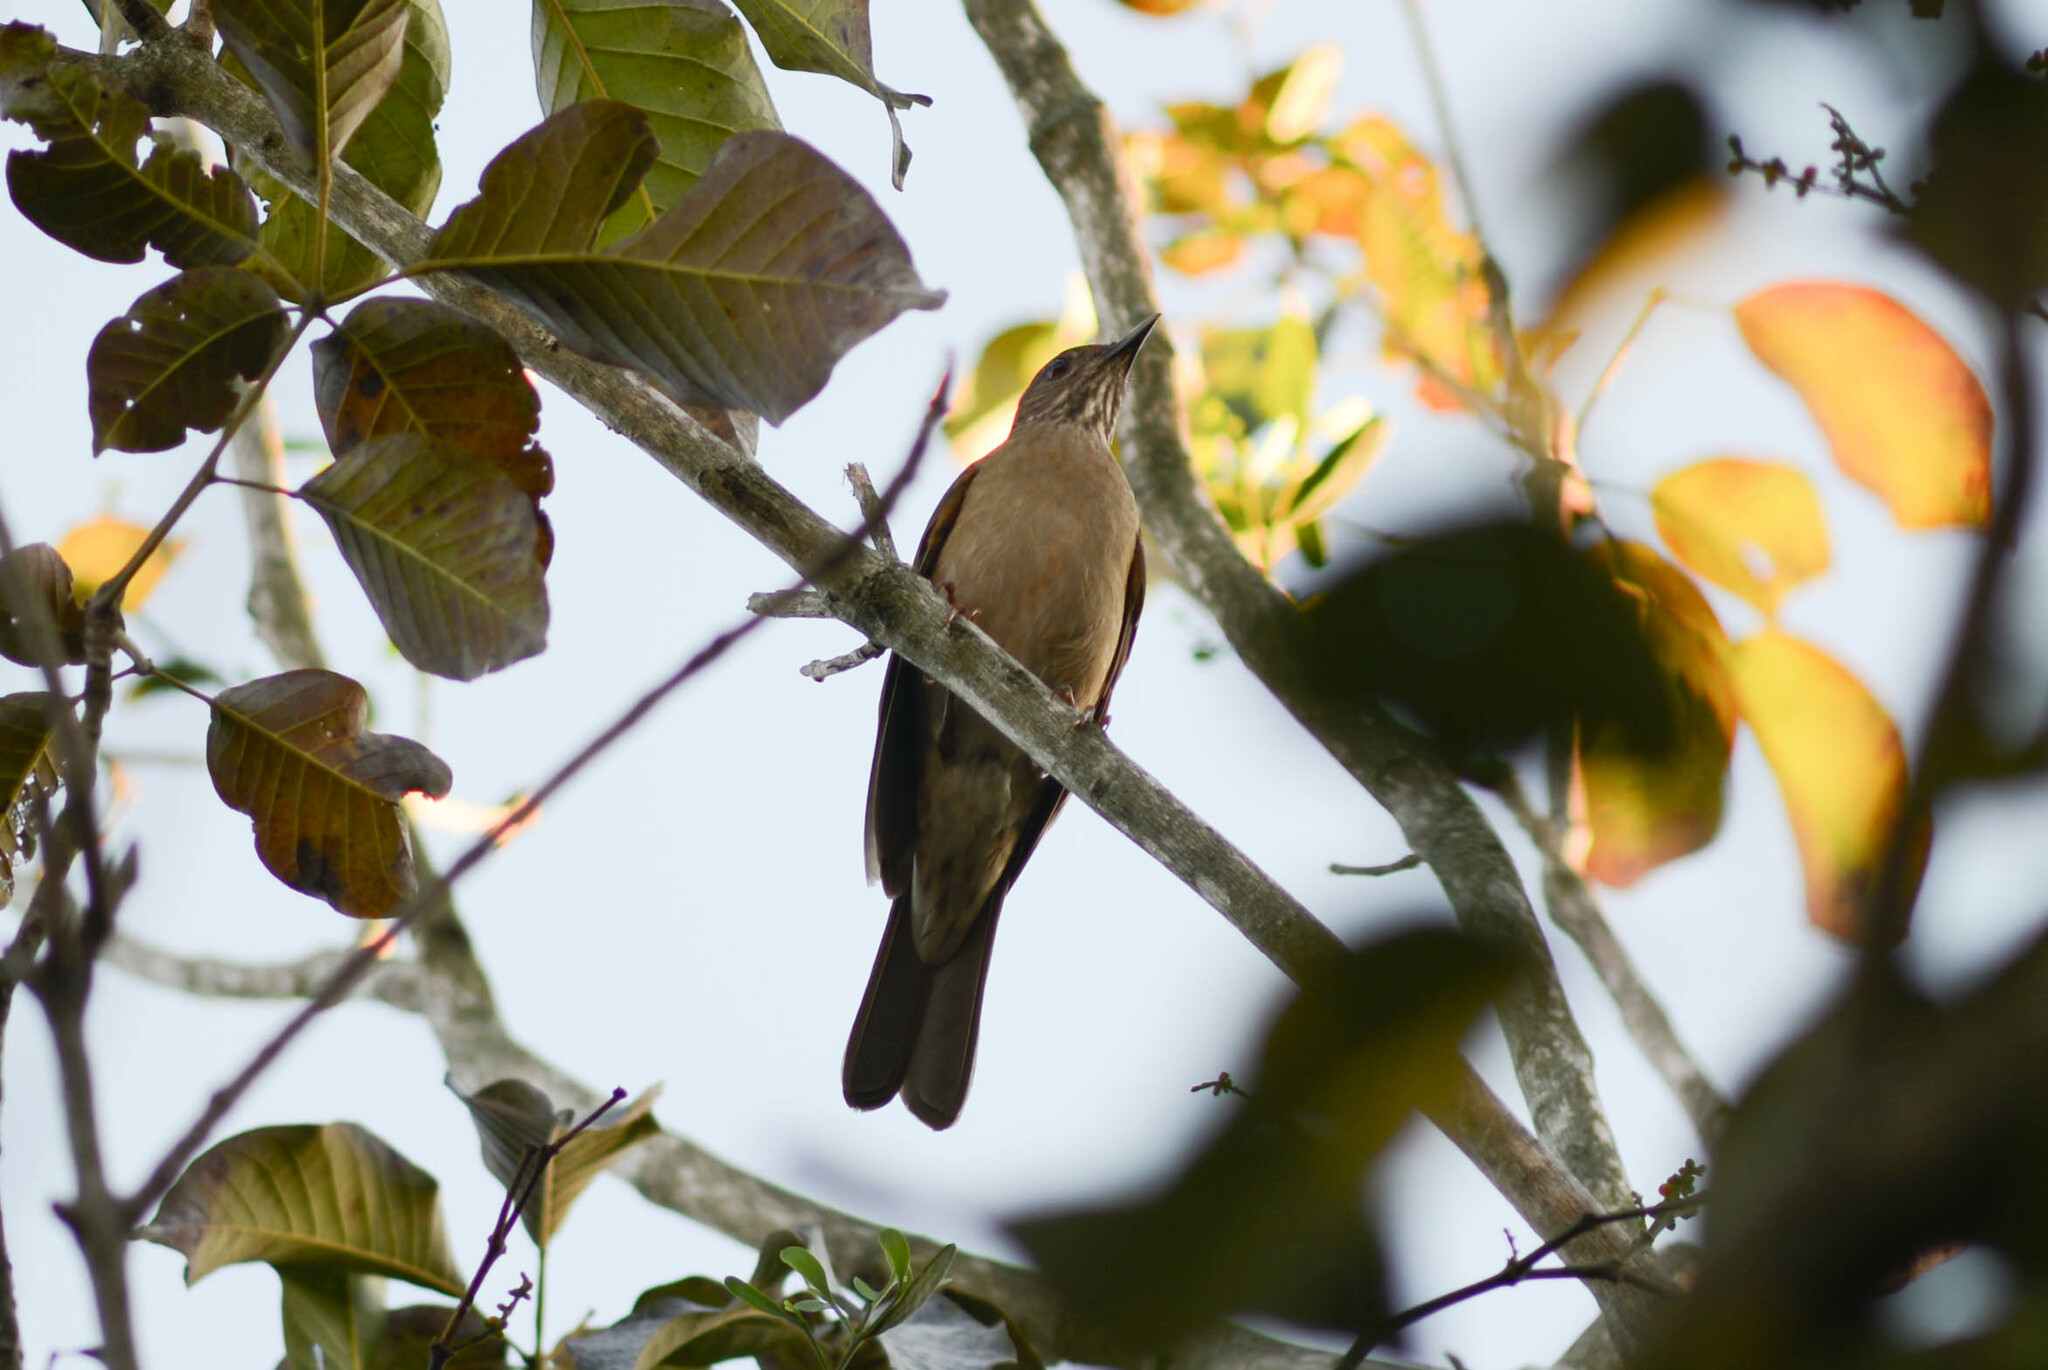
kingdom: Animalia
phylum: Chordata
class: Aves
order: Passeriformes
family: Turdidae
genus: Turdus
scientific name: Turdus leucomelas
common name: Pale-breasted thrush
